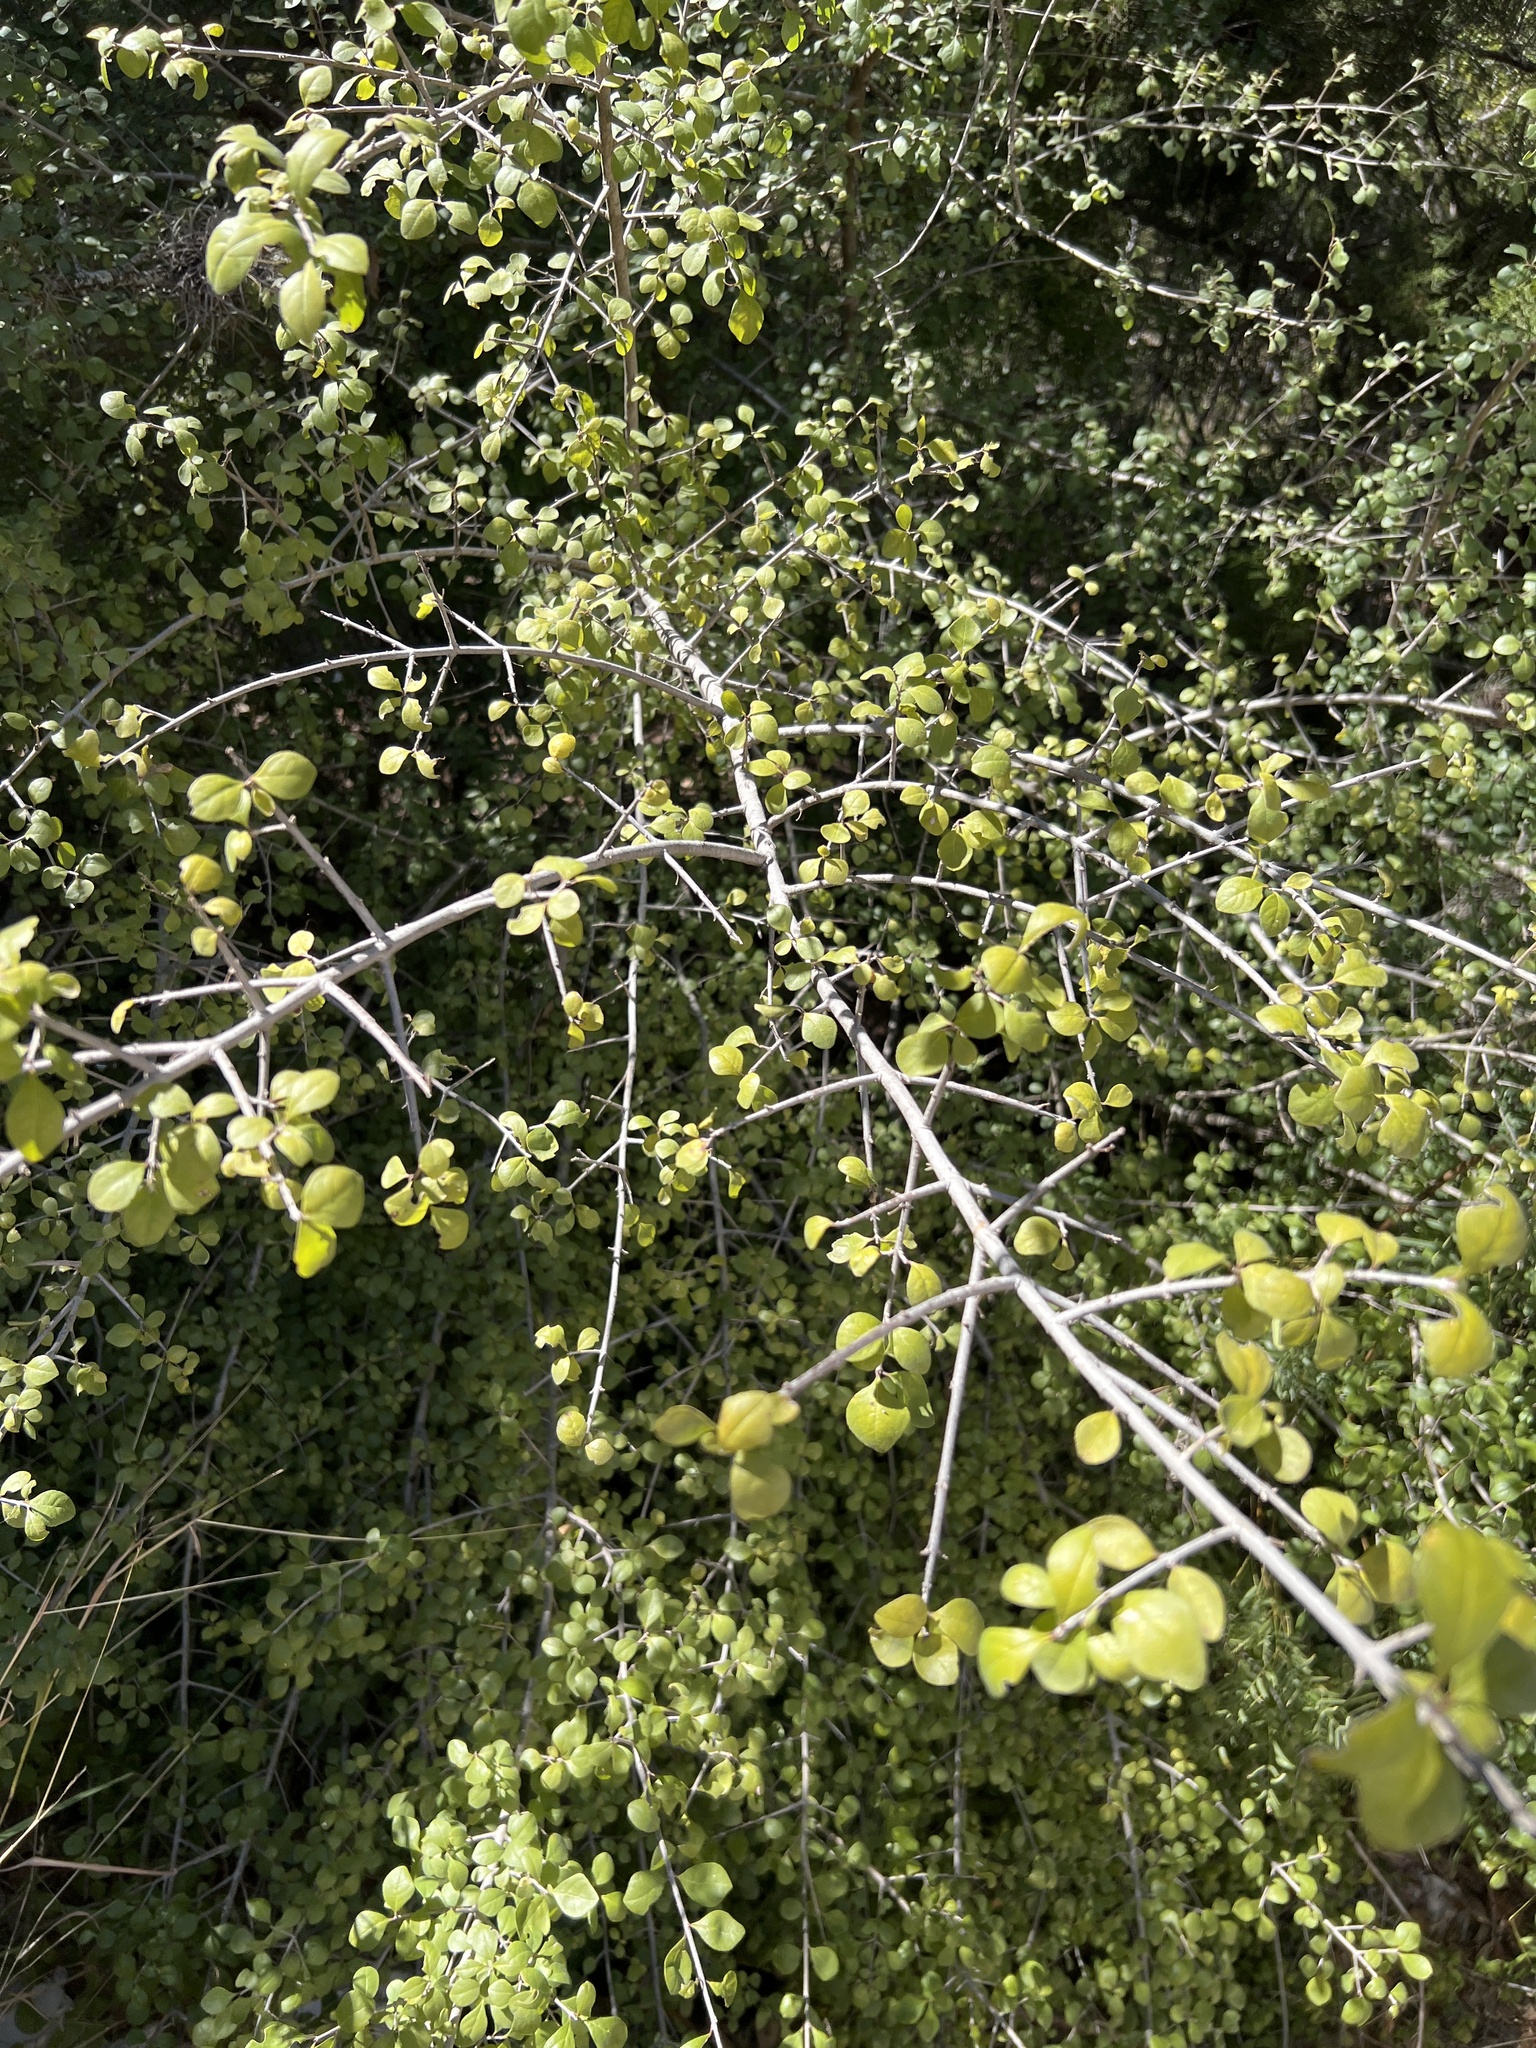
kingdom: Plantae
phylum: Tracheophyta
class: Magnoliopsida
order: Lamiales
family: Oleaceae
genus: Forestiera
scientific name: Forestiera pubescens
